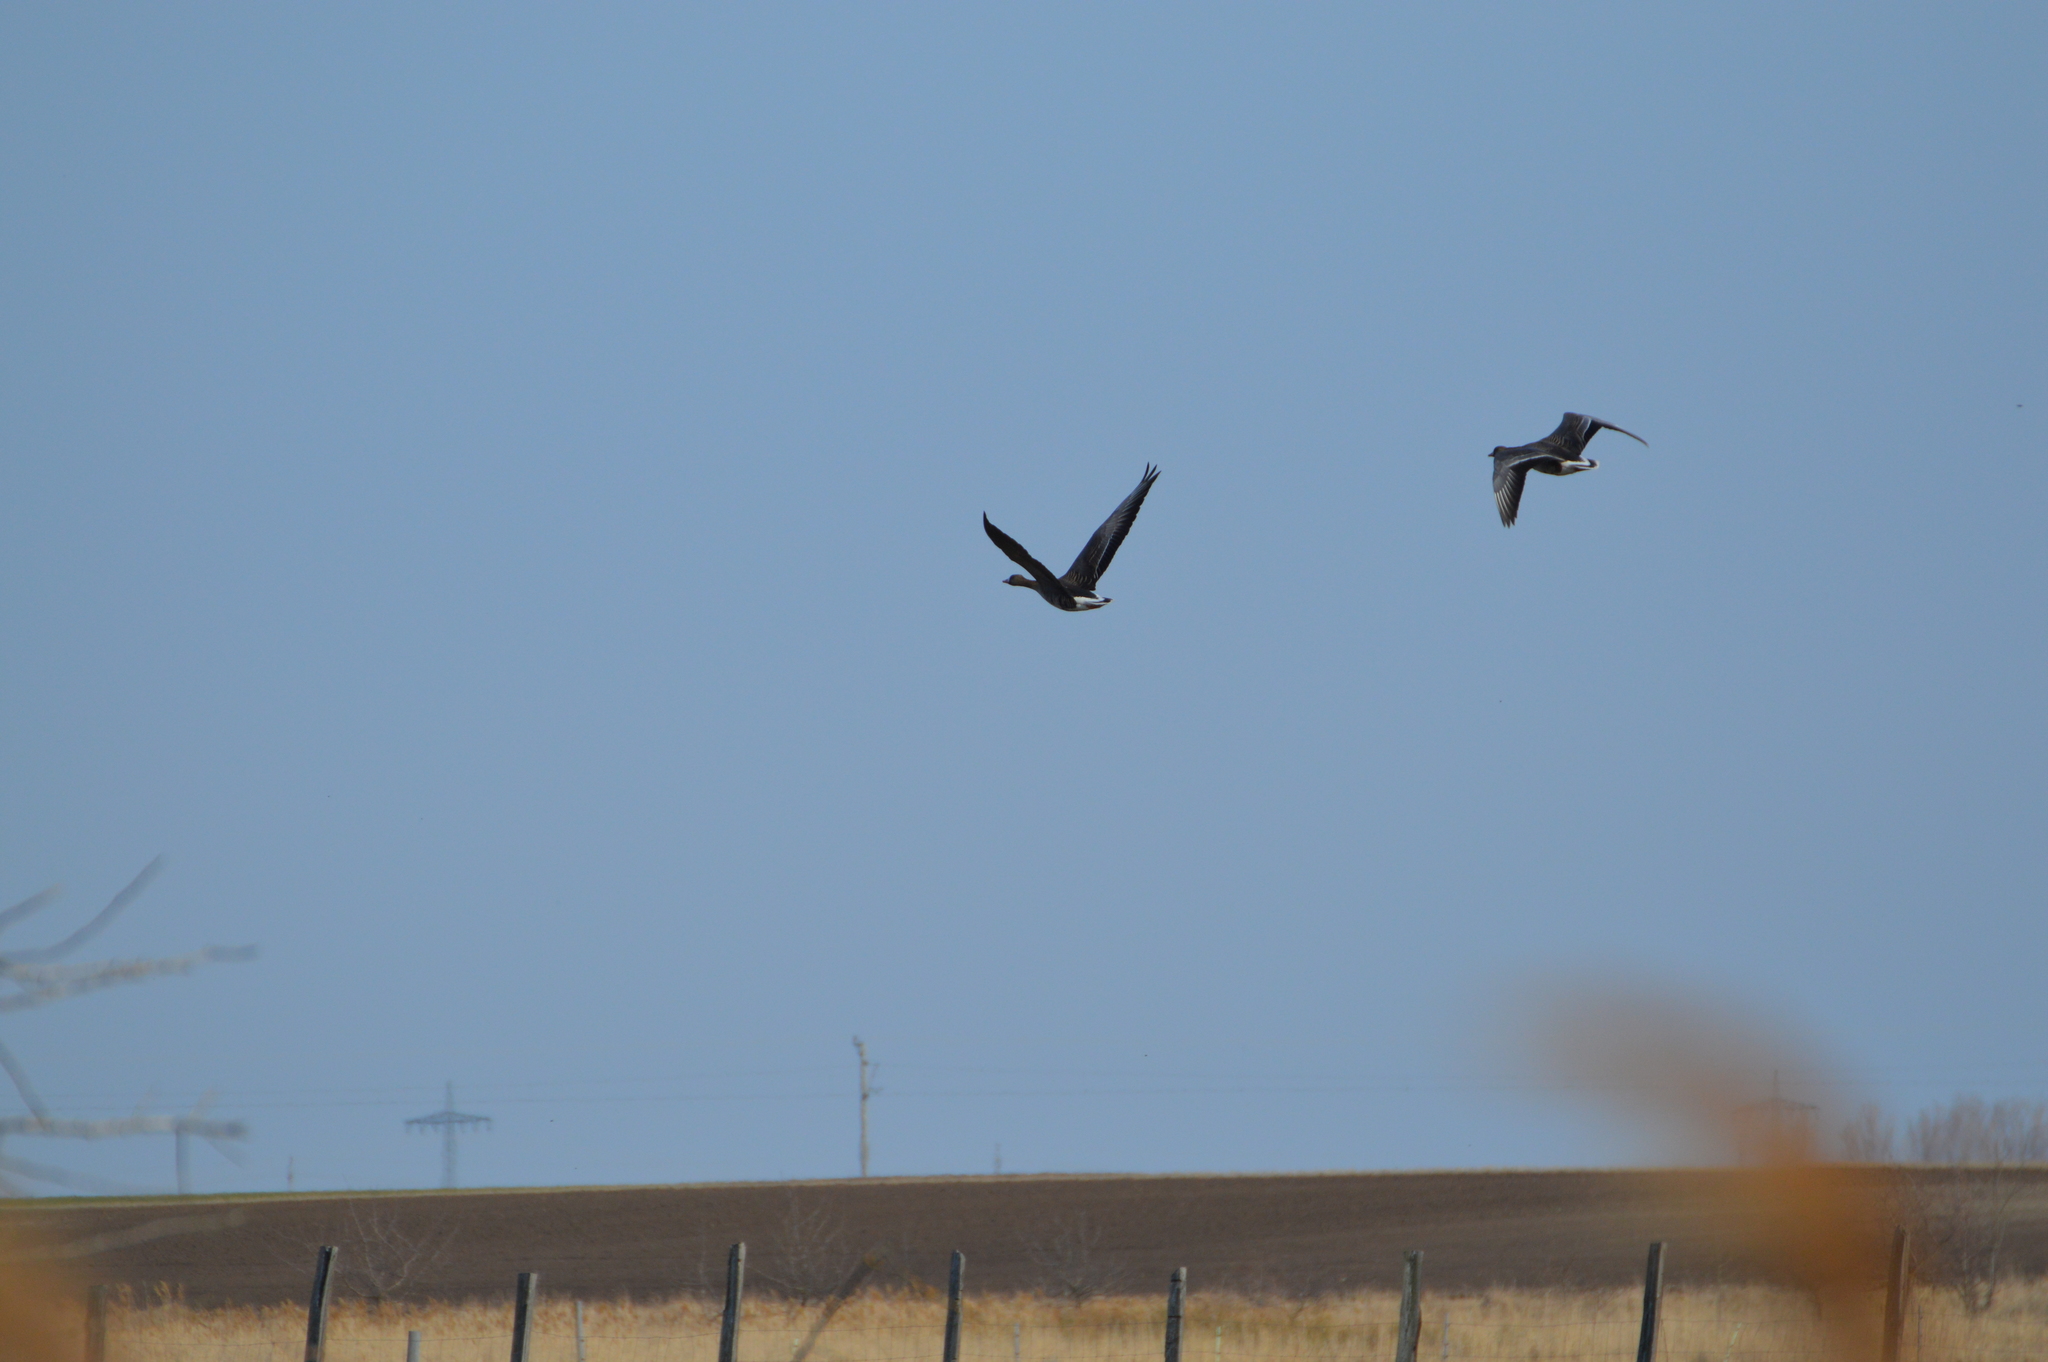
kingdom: Animalia
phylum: Chordata
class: Aves
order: Anseriformes
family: Anatidae
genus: Anser
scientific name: Anser albifrons
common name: Greater white-fronted goose
